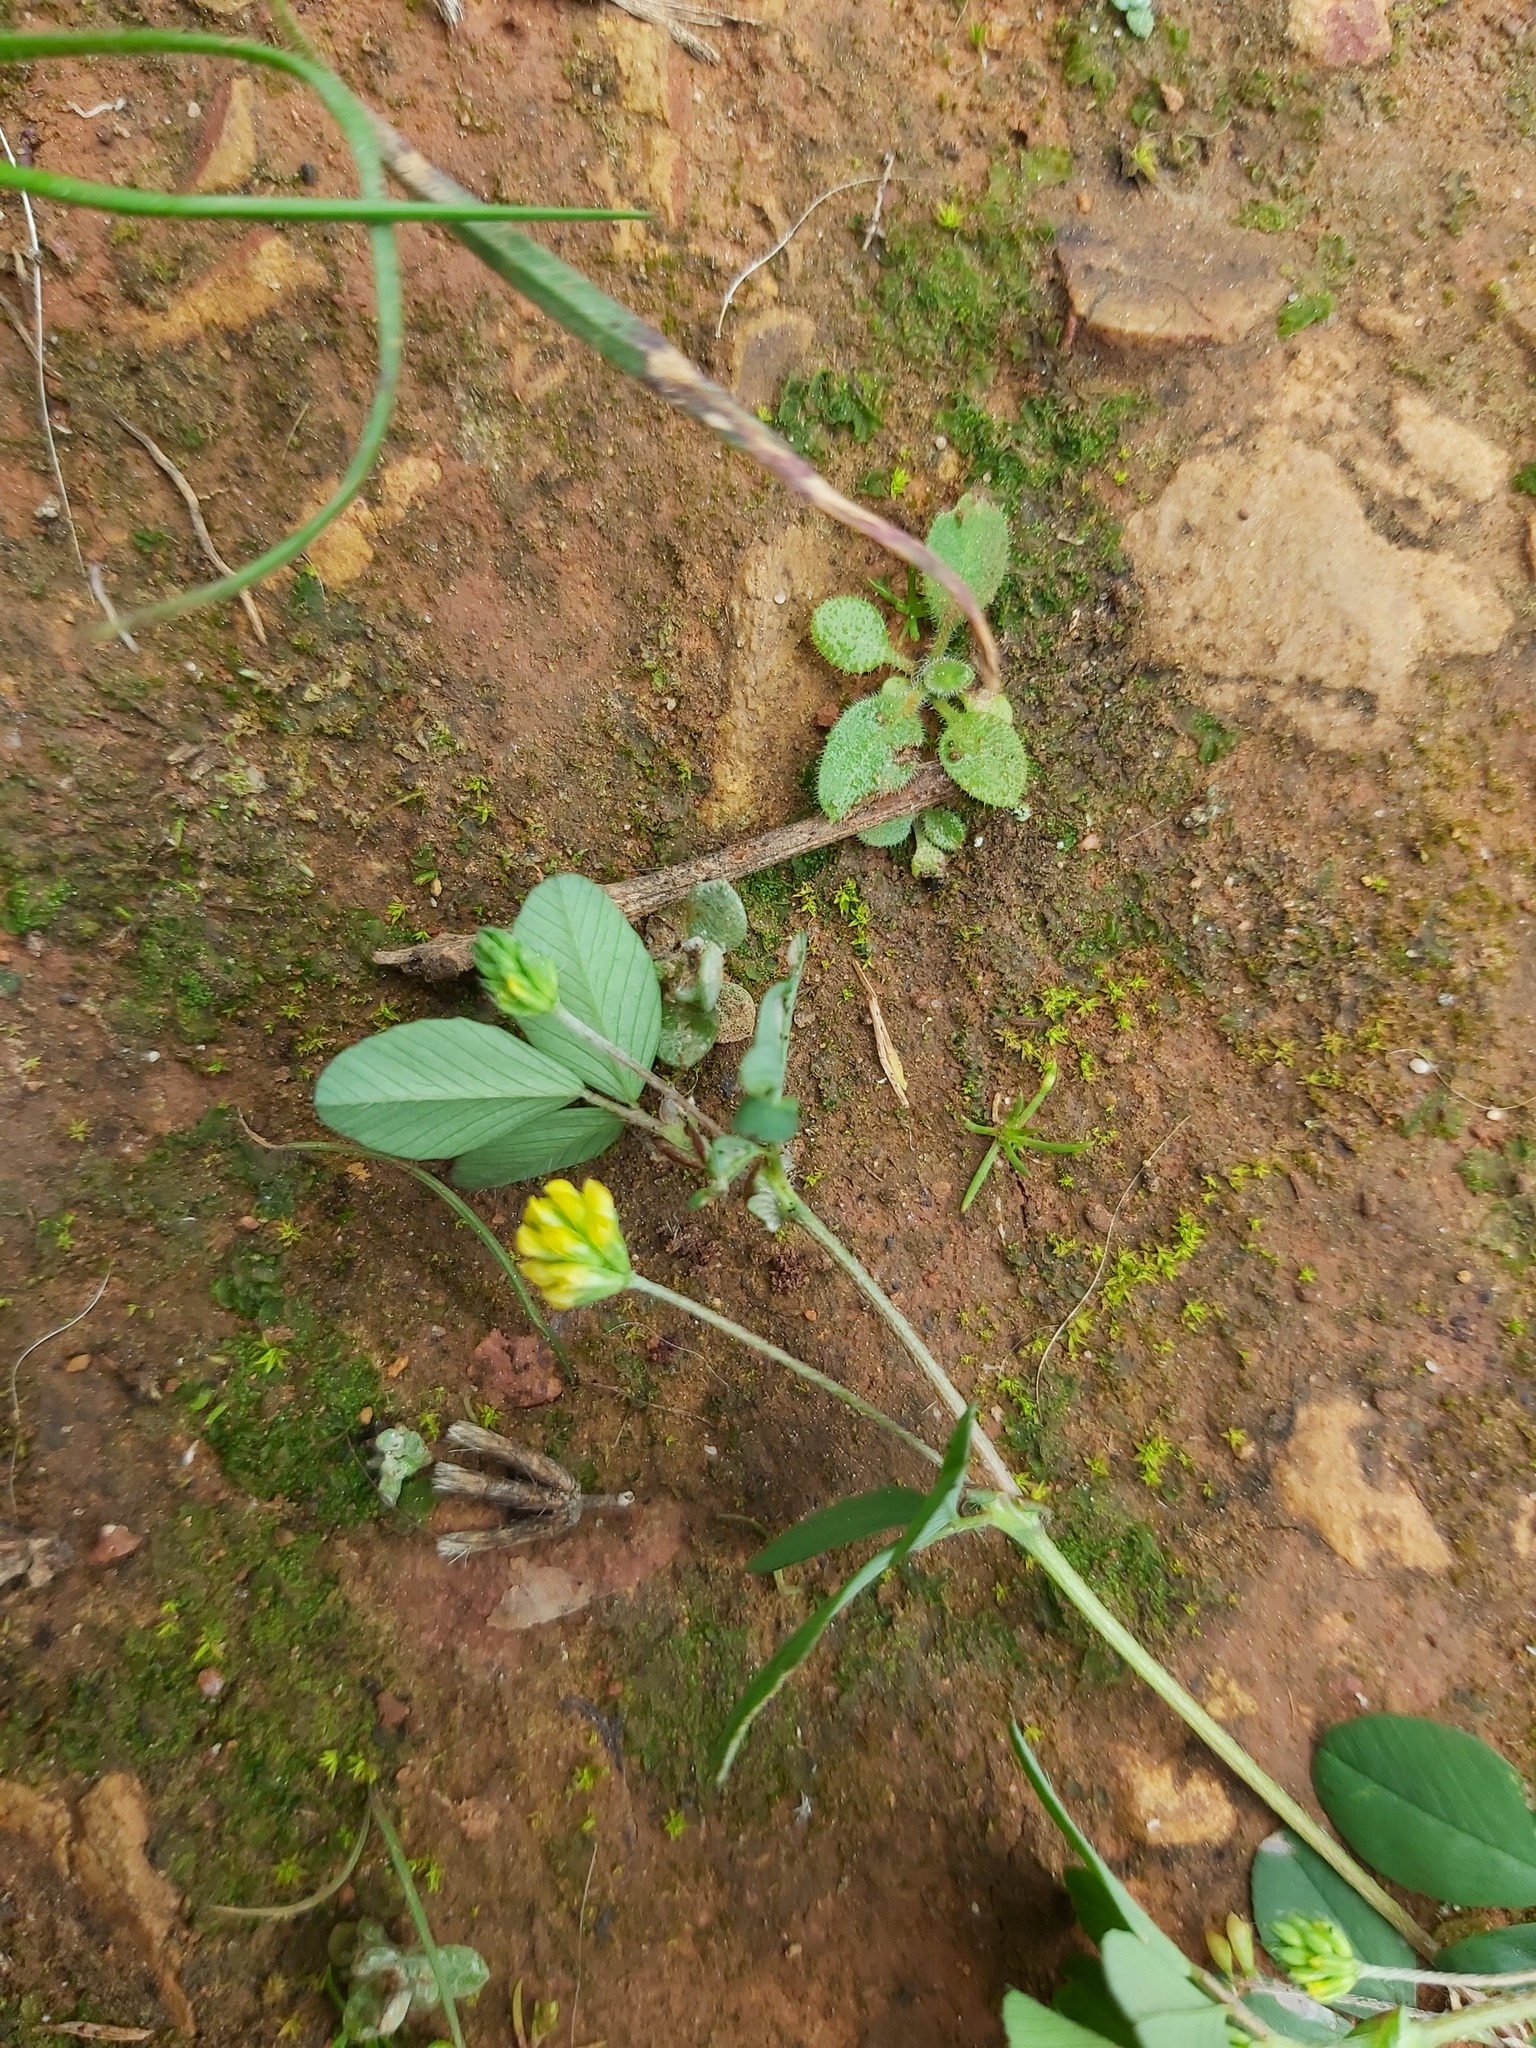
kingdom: Plantae
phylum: Tracheophyta
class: Magnoliopsida
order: Fabales
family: Fabaceae
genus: Trifolium
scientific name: Trifolium dubium
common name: Suckling clover
